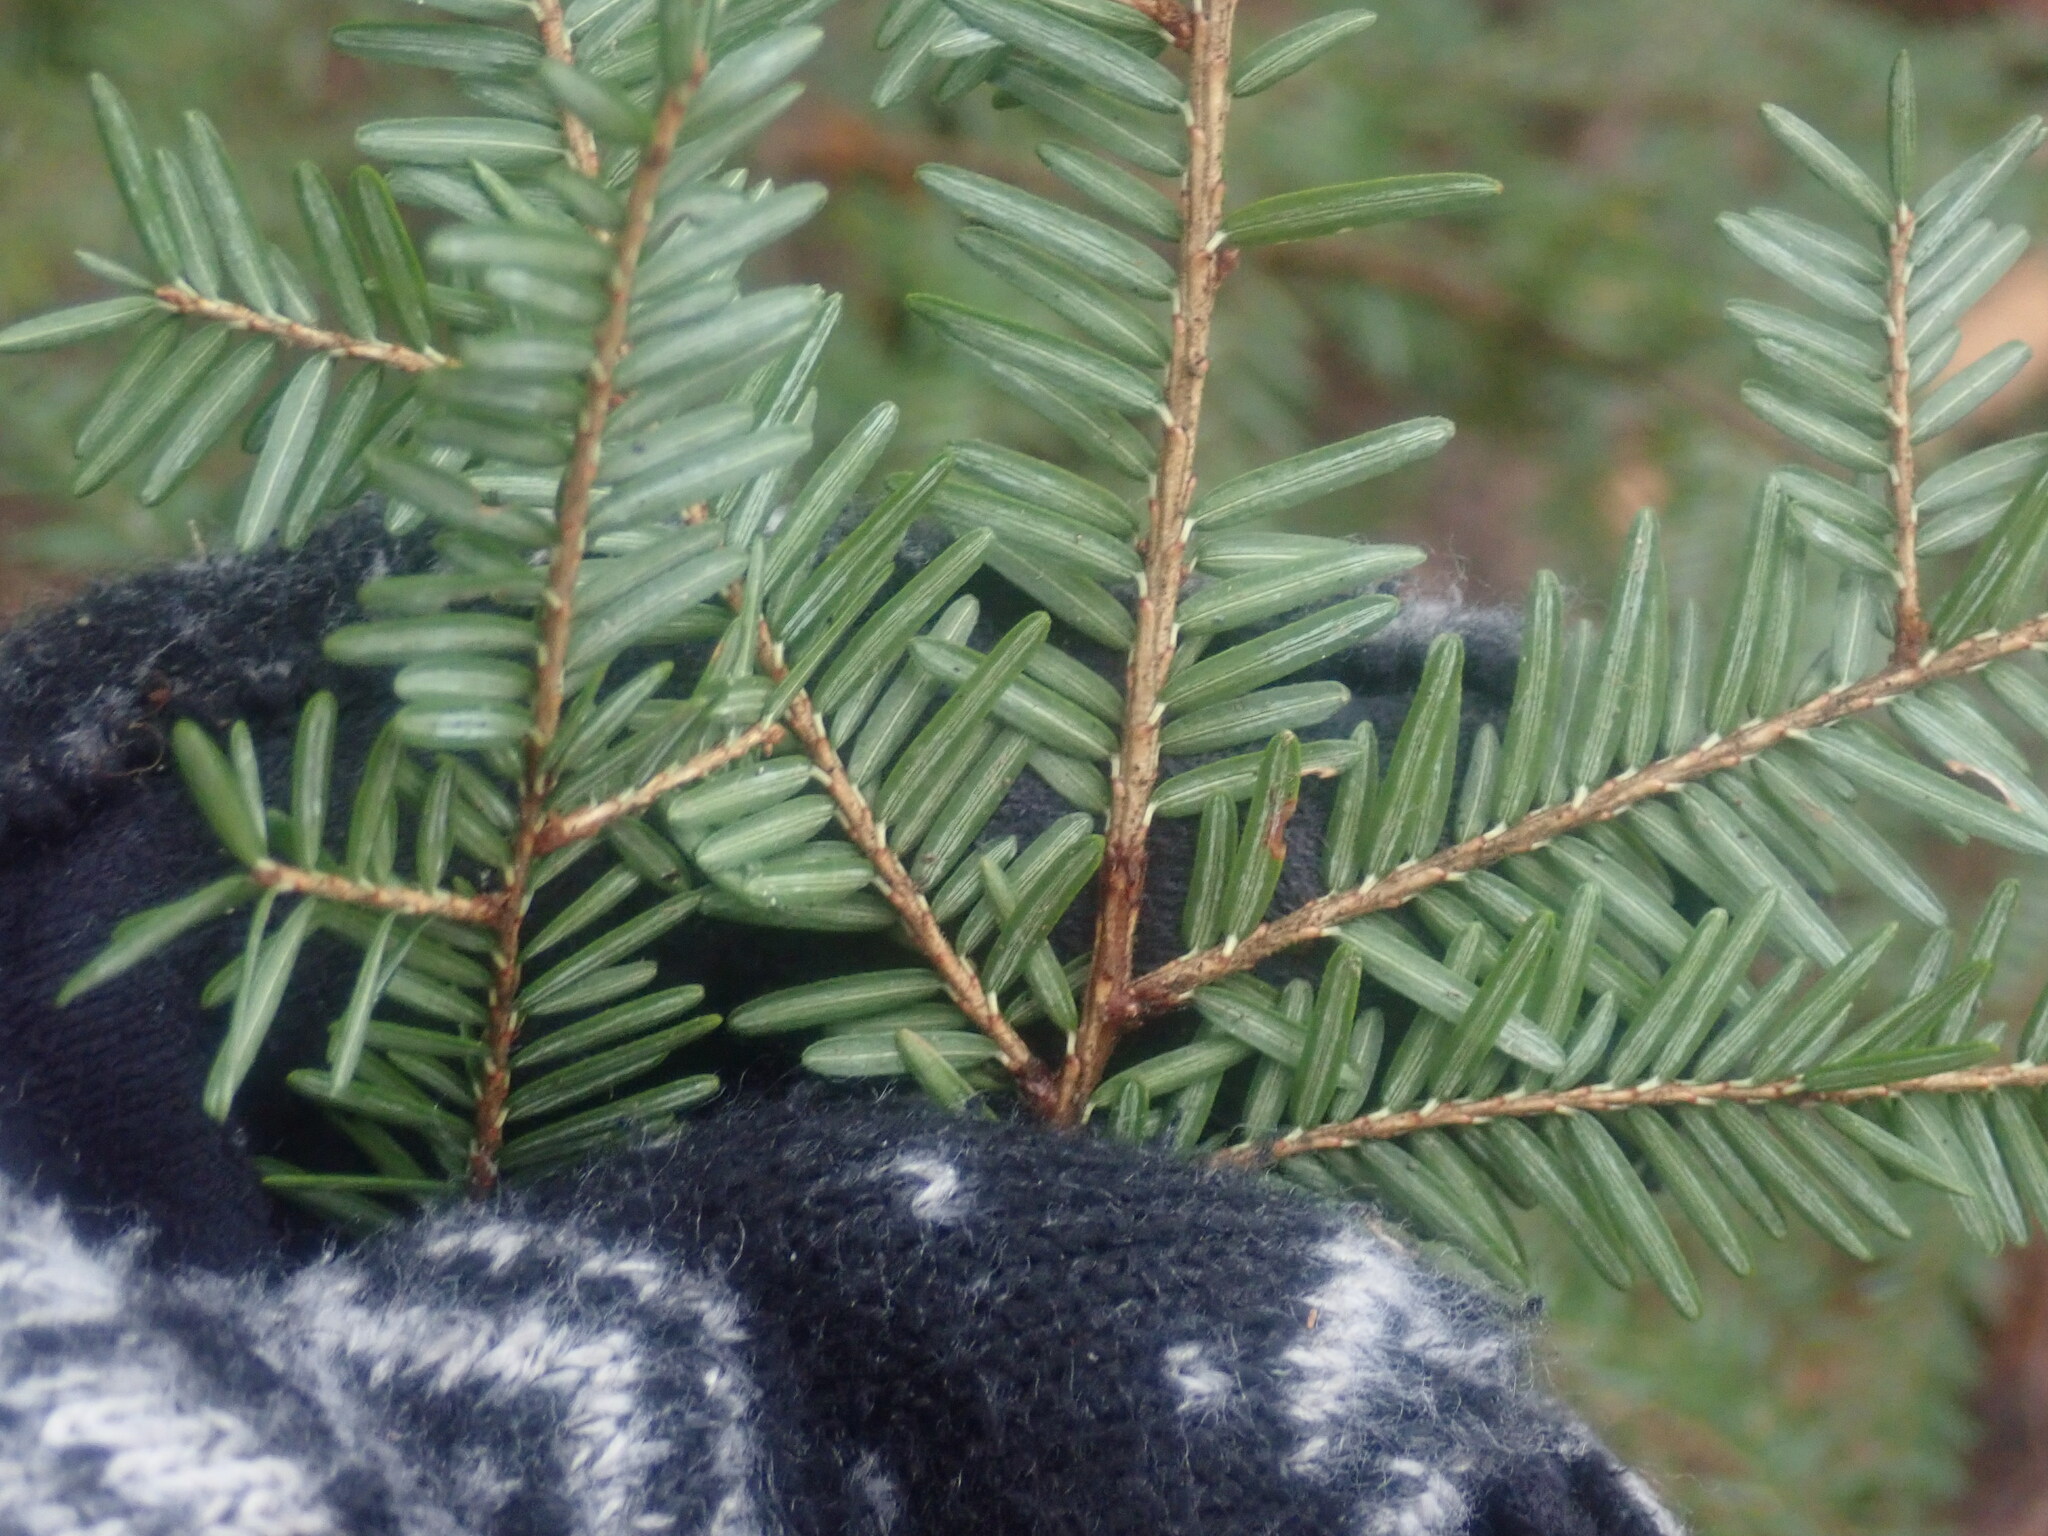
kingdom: Plantae
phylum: Tracheophyta
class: Pinopsida
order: Pinales
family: Pinaceae
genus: Tsuga
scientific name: Tsuga canadensis
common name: Eastern hemlock
